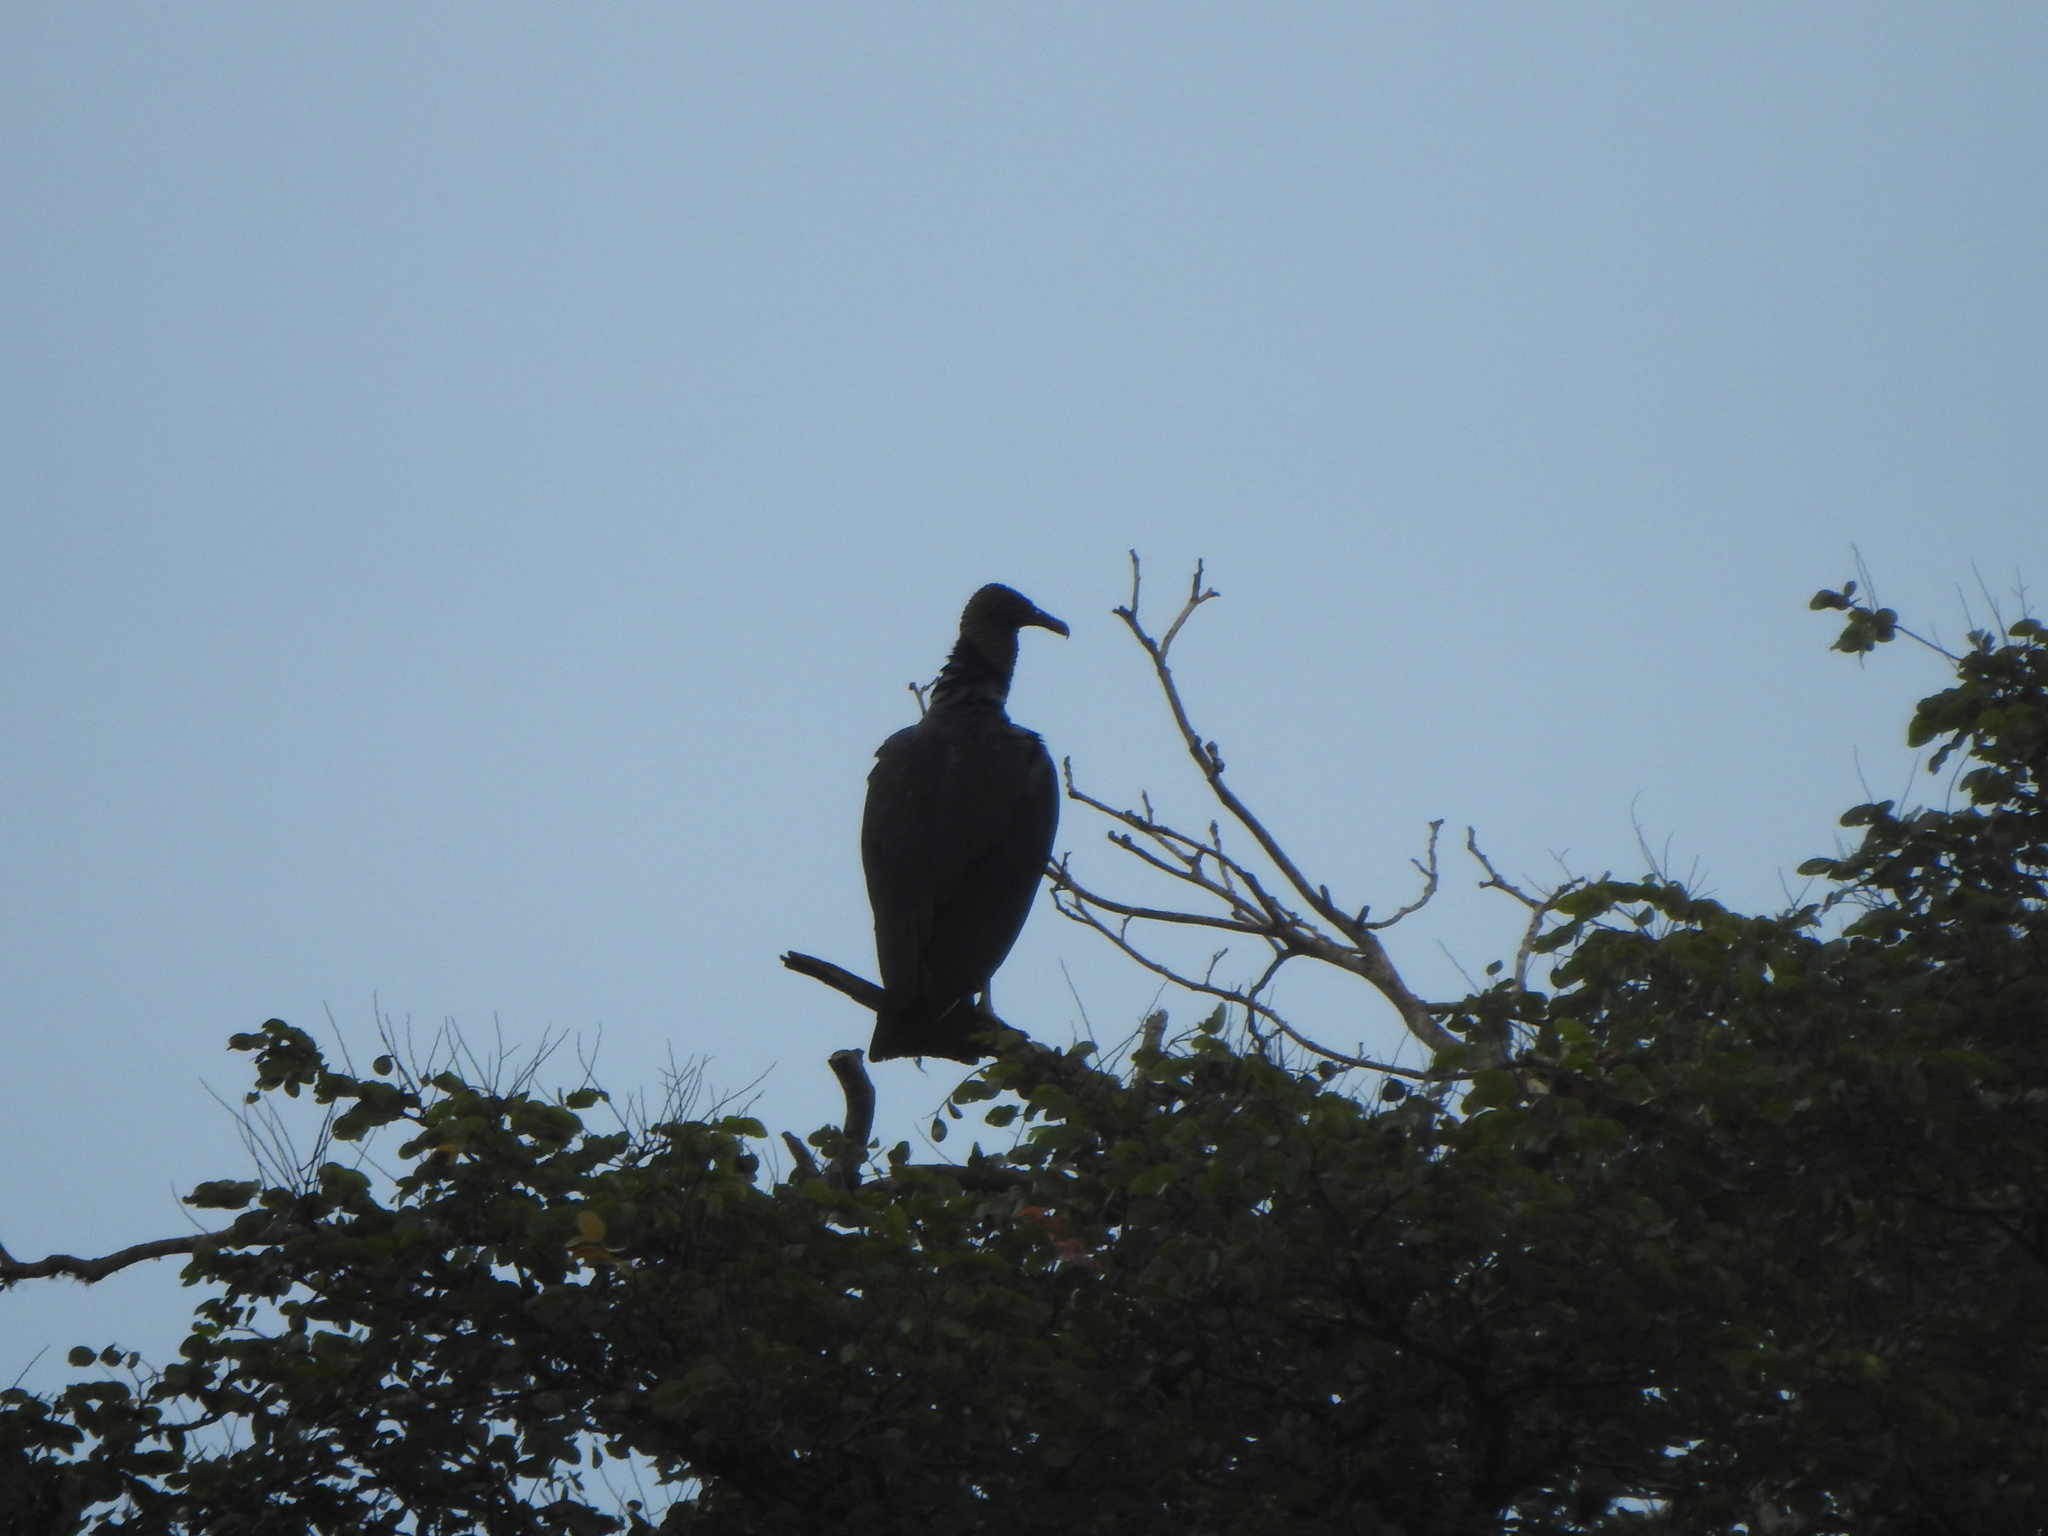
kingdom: Animalia
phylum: Chordata
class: Aves
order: Accipitriformes
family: Cathartidae
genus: Coragyps
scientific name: Coragyps atratus
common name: Black vulture
